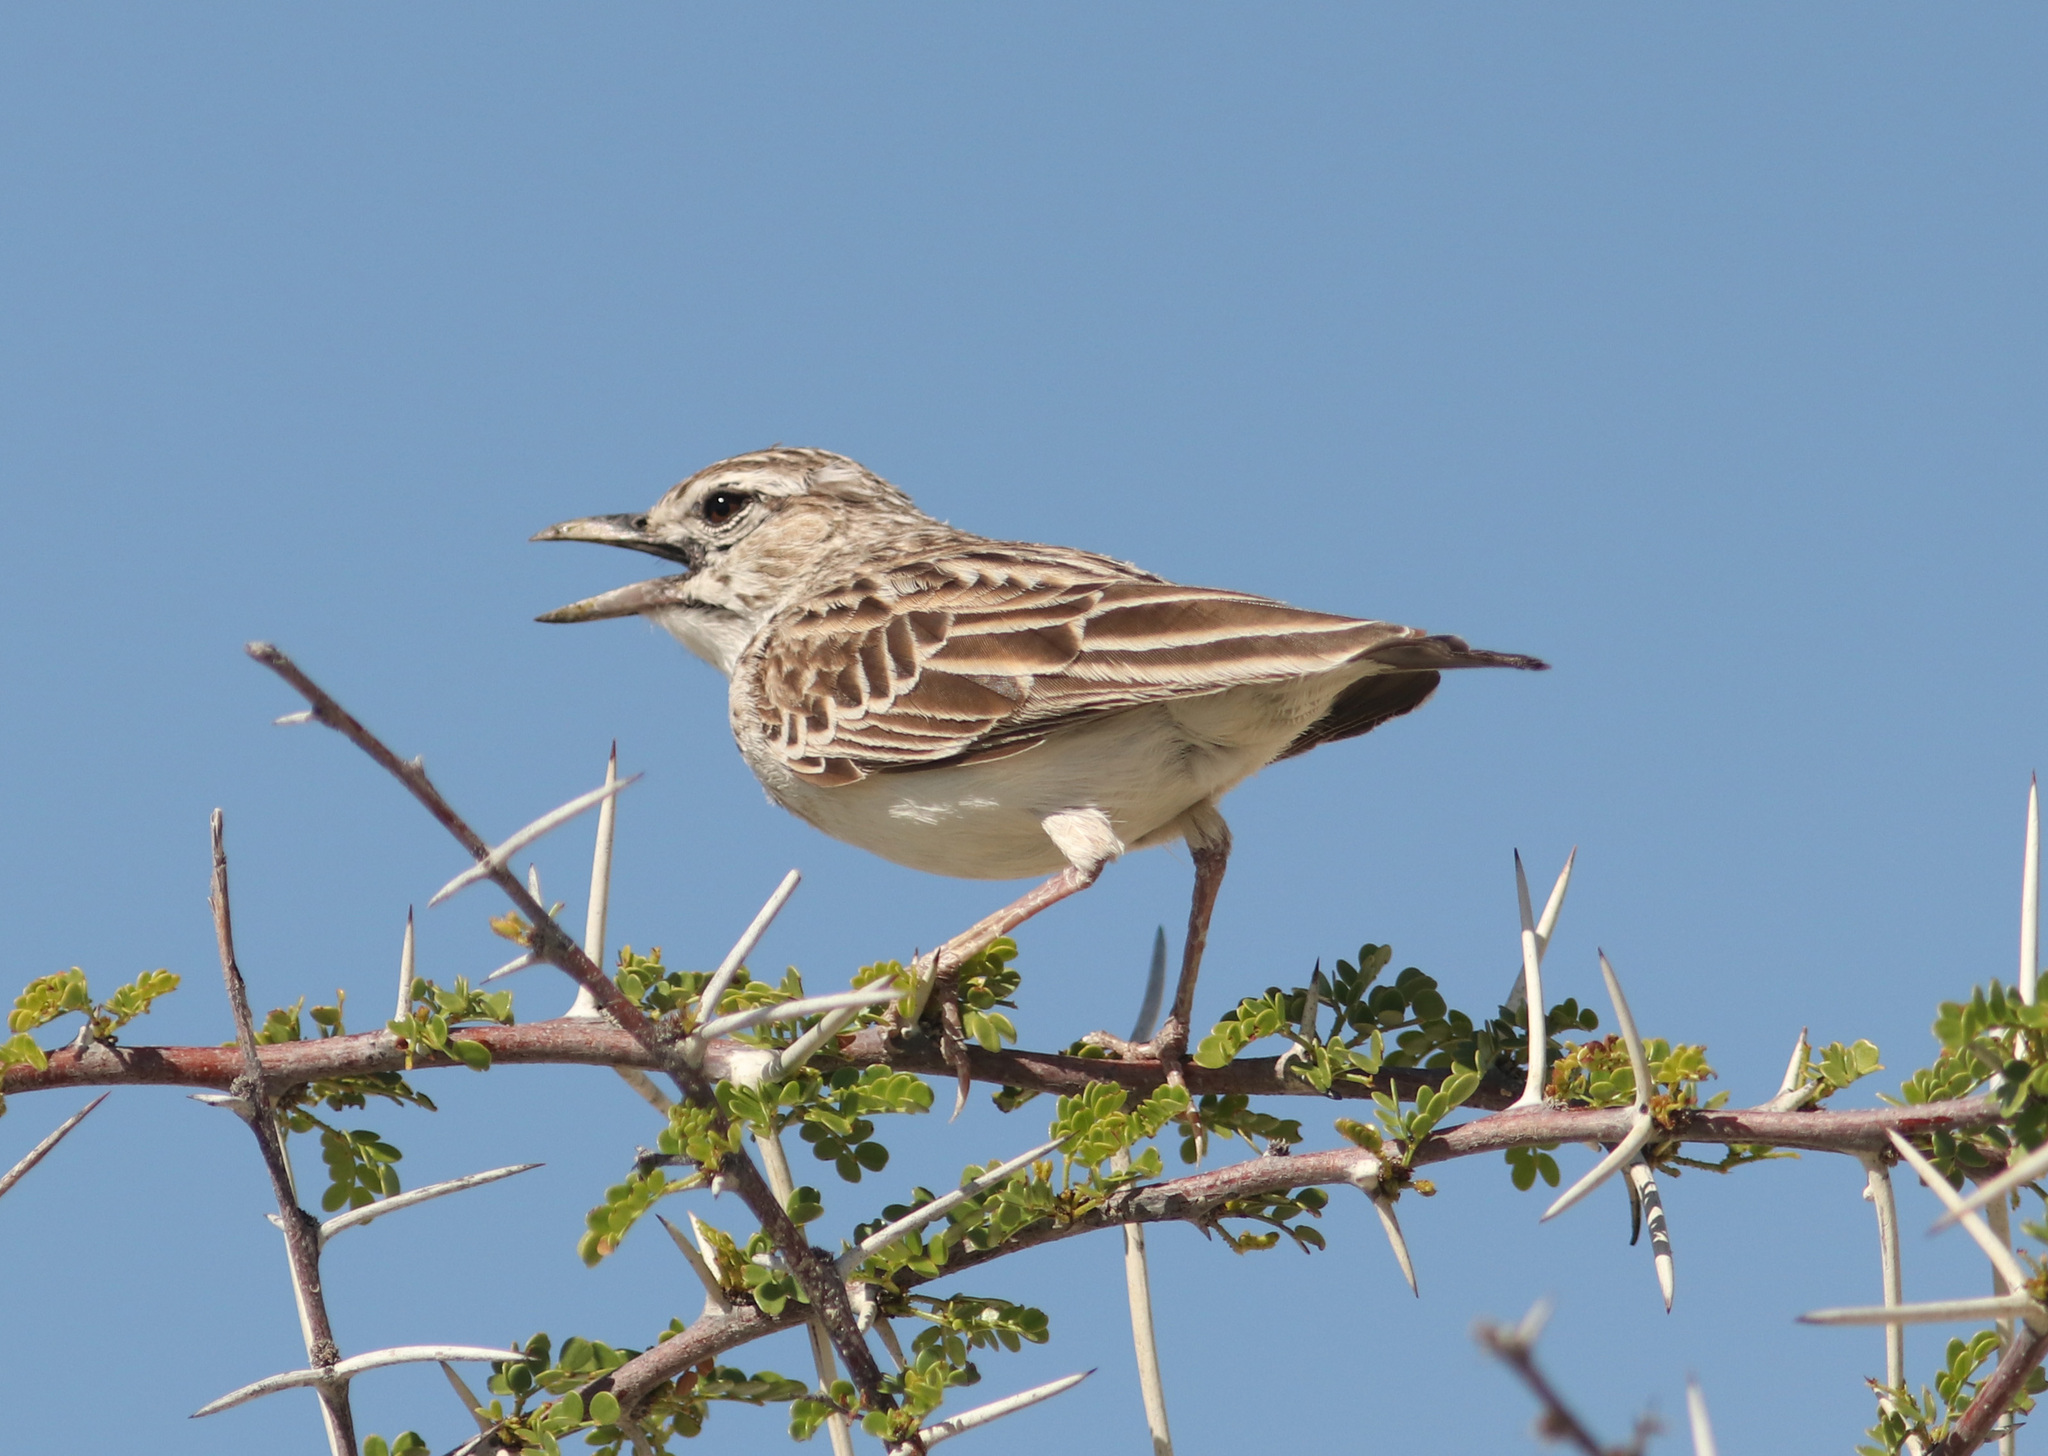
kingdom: Animalia
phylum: Chordata
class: Aves
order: Passeriformes
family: Alaudidae
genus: Calendulauda
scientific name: Calendulauda sabota
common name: Sabota lark
